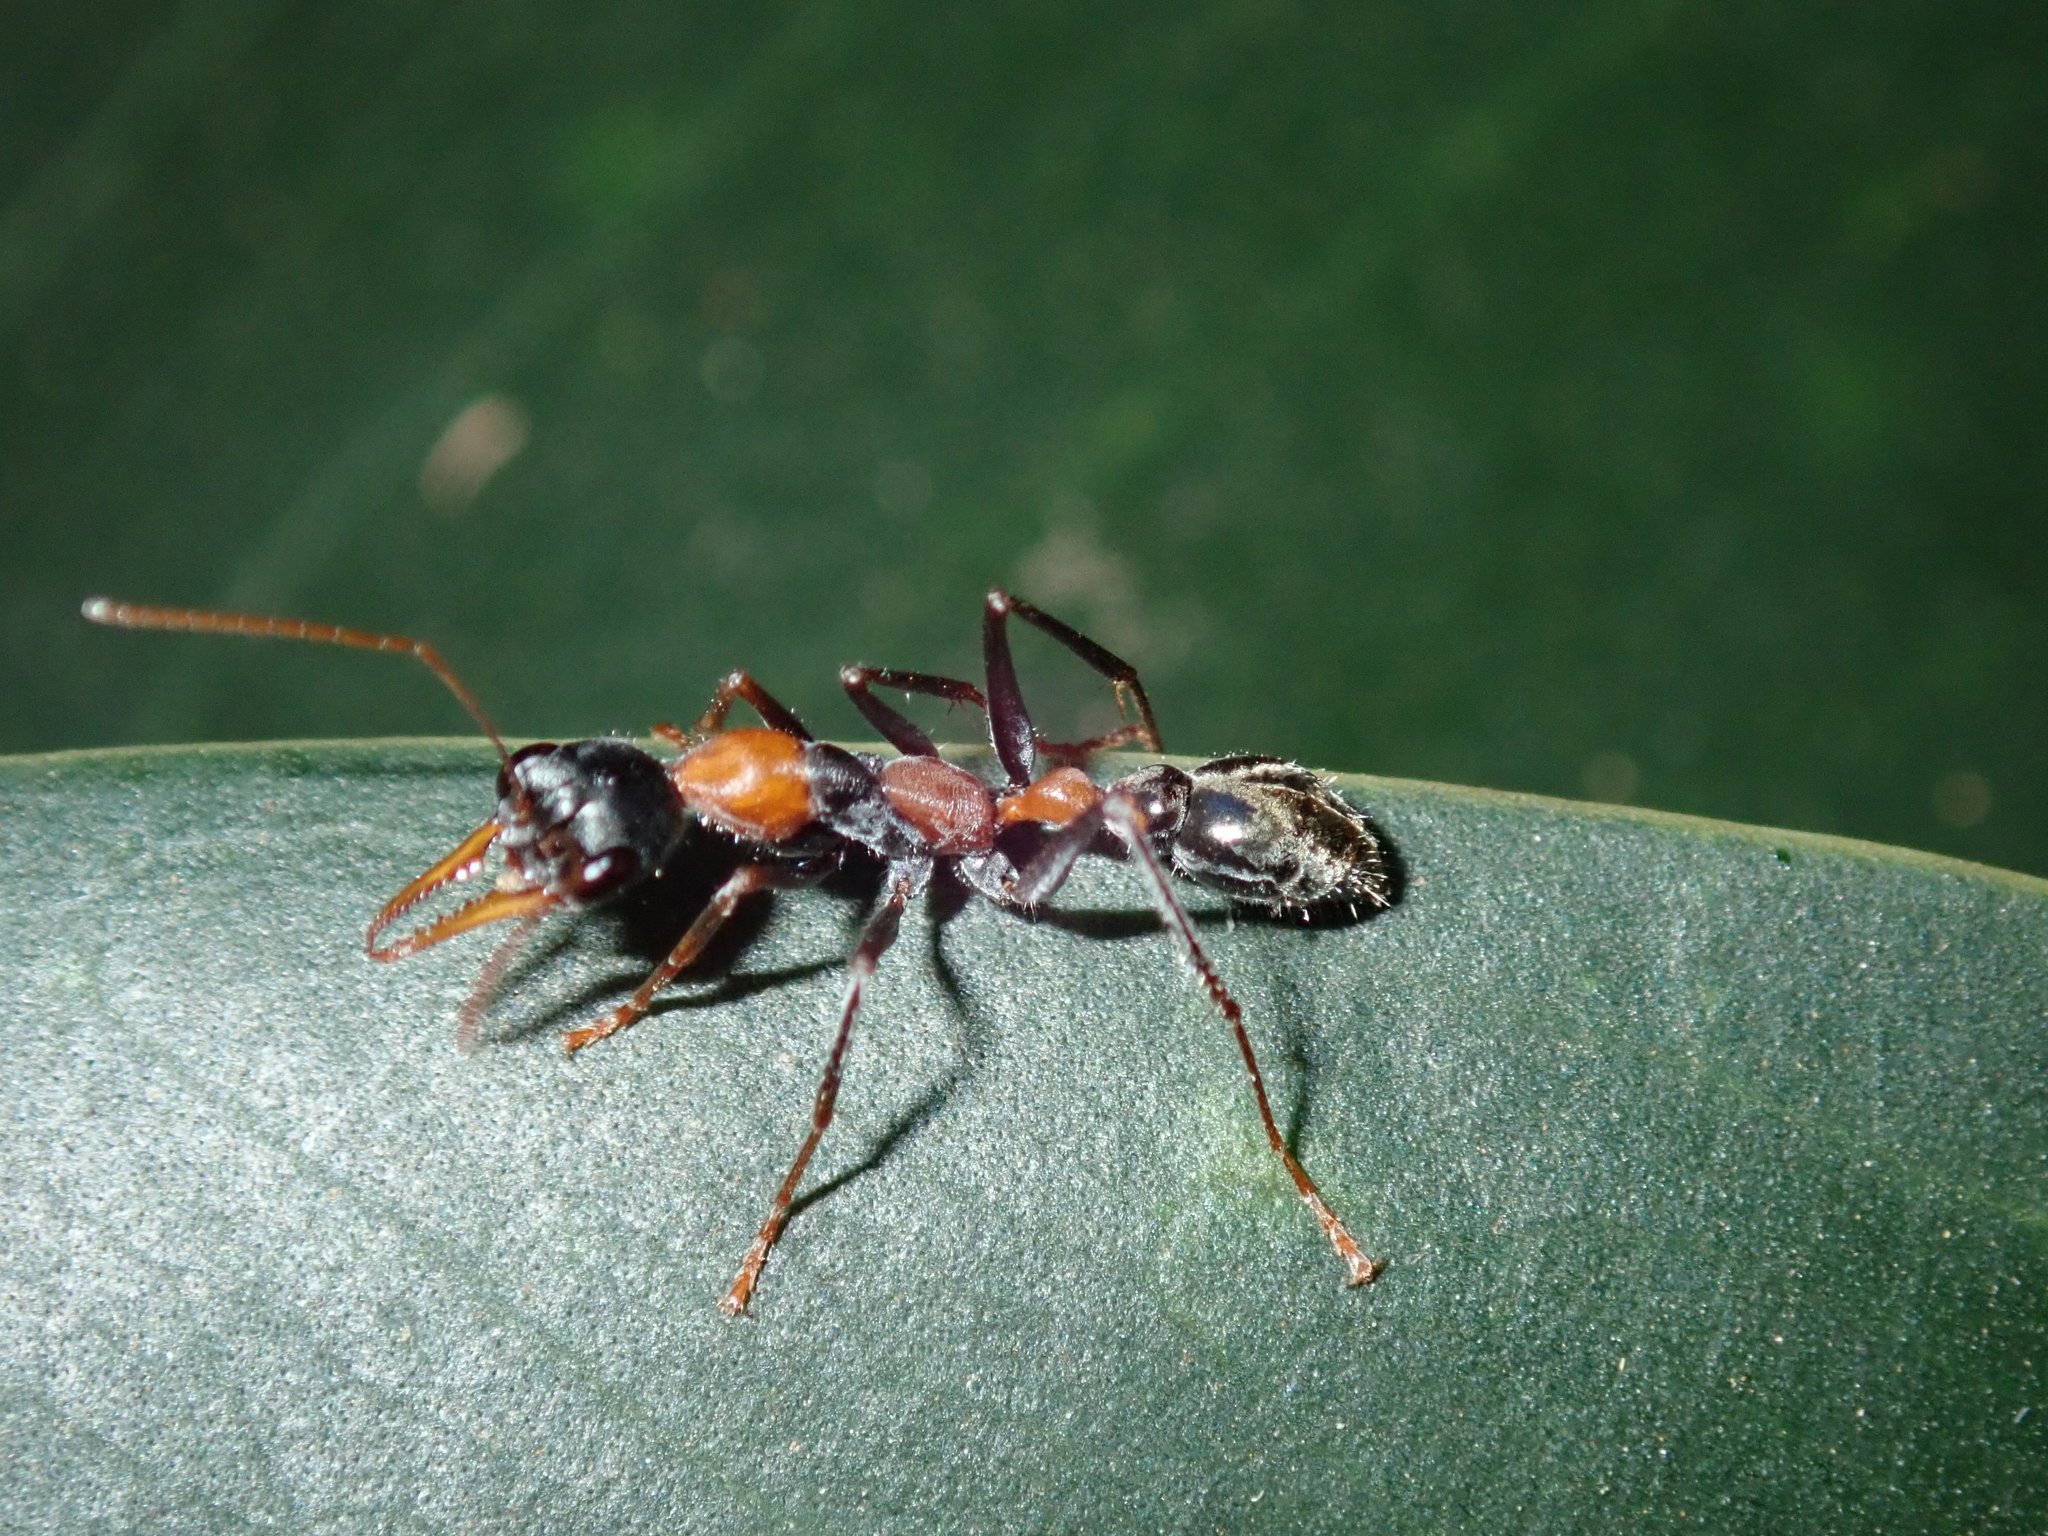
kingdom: Animalia
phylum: Arthropoda
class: Insecta
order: Hymenoptera
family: Formicidae
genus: Myrmecia
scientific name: Myrmecia nigrocincta
